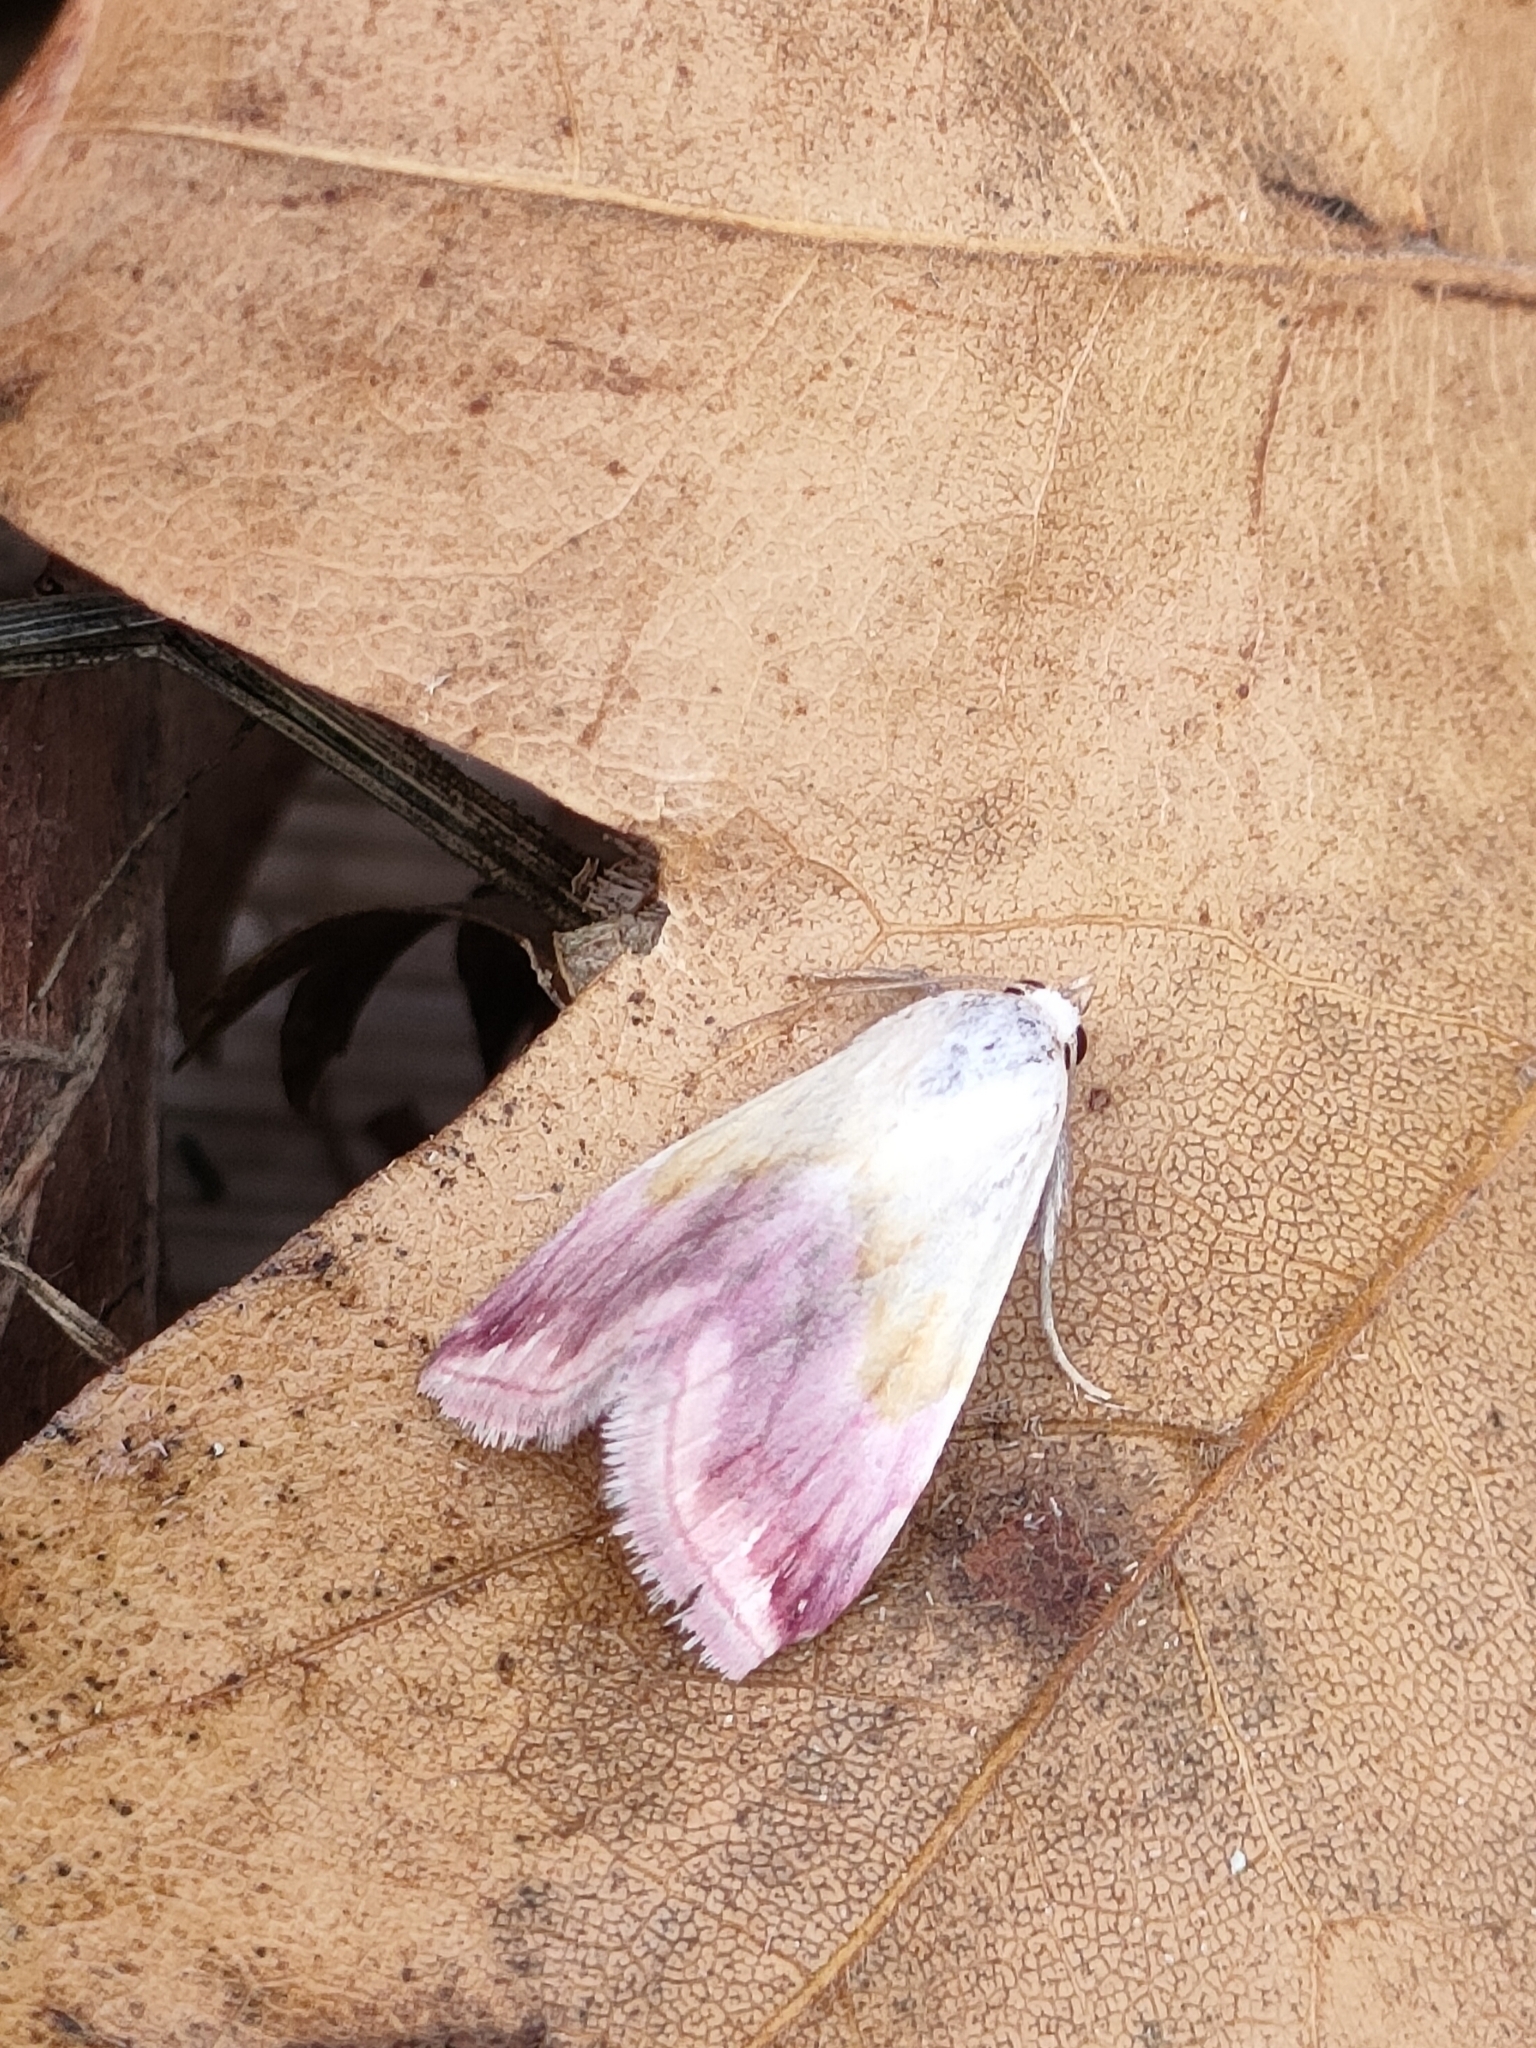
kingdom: Animalia
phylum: Arthropoda
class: Insecta
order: Lepidoptera
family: Noctuidae
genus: Eublemma
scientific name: Eublemma purpurina
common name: Beautiful marbled
